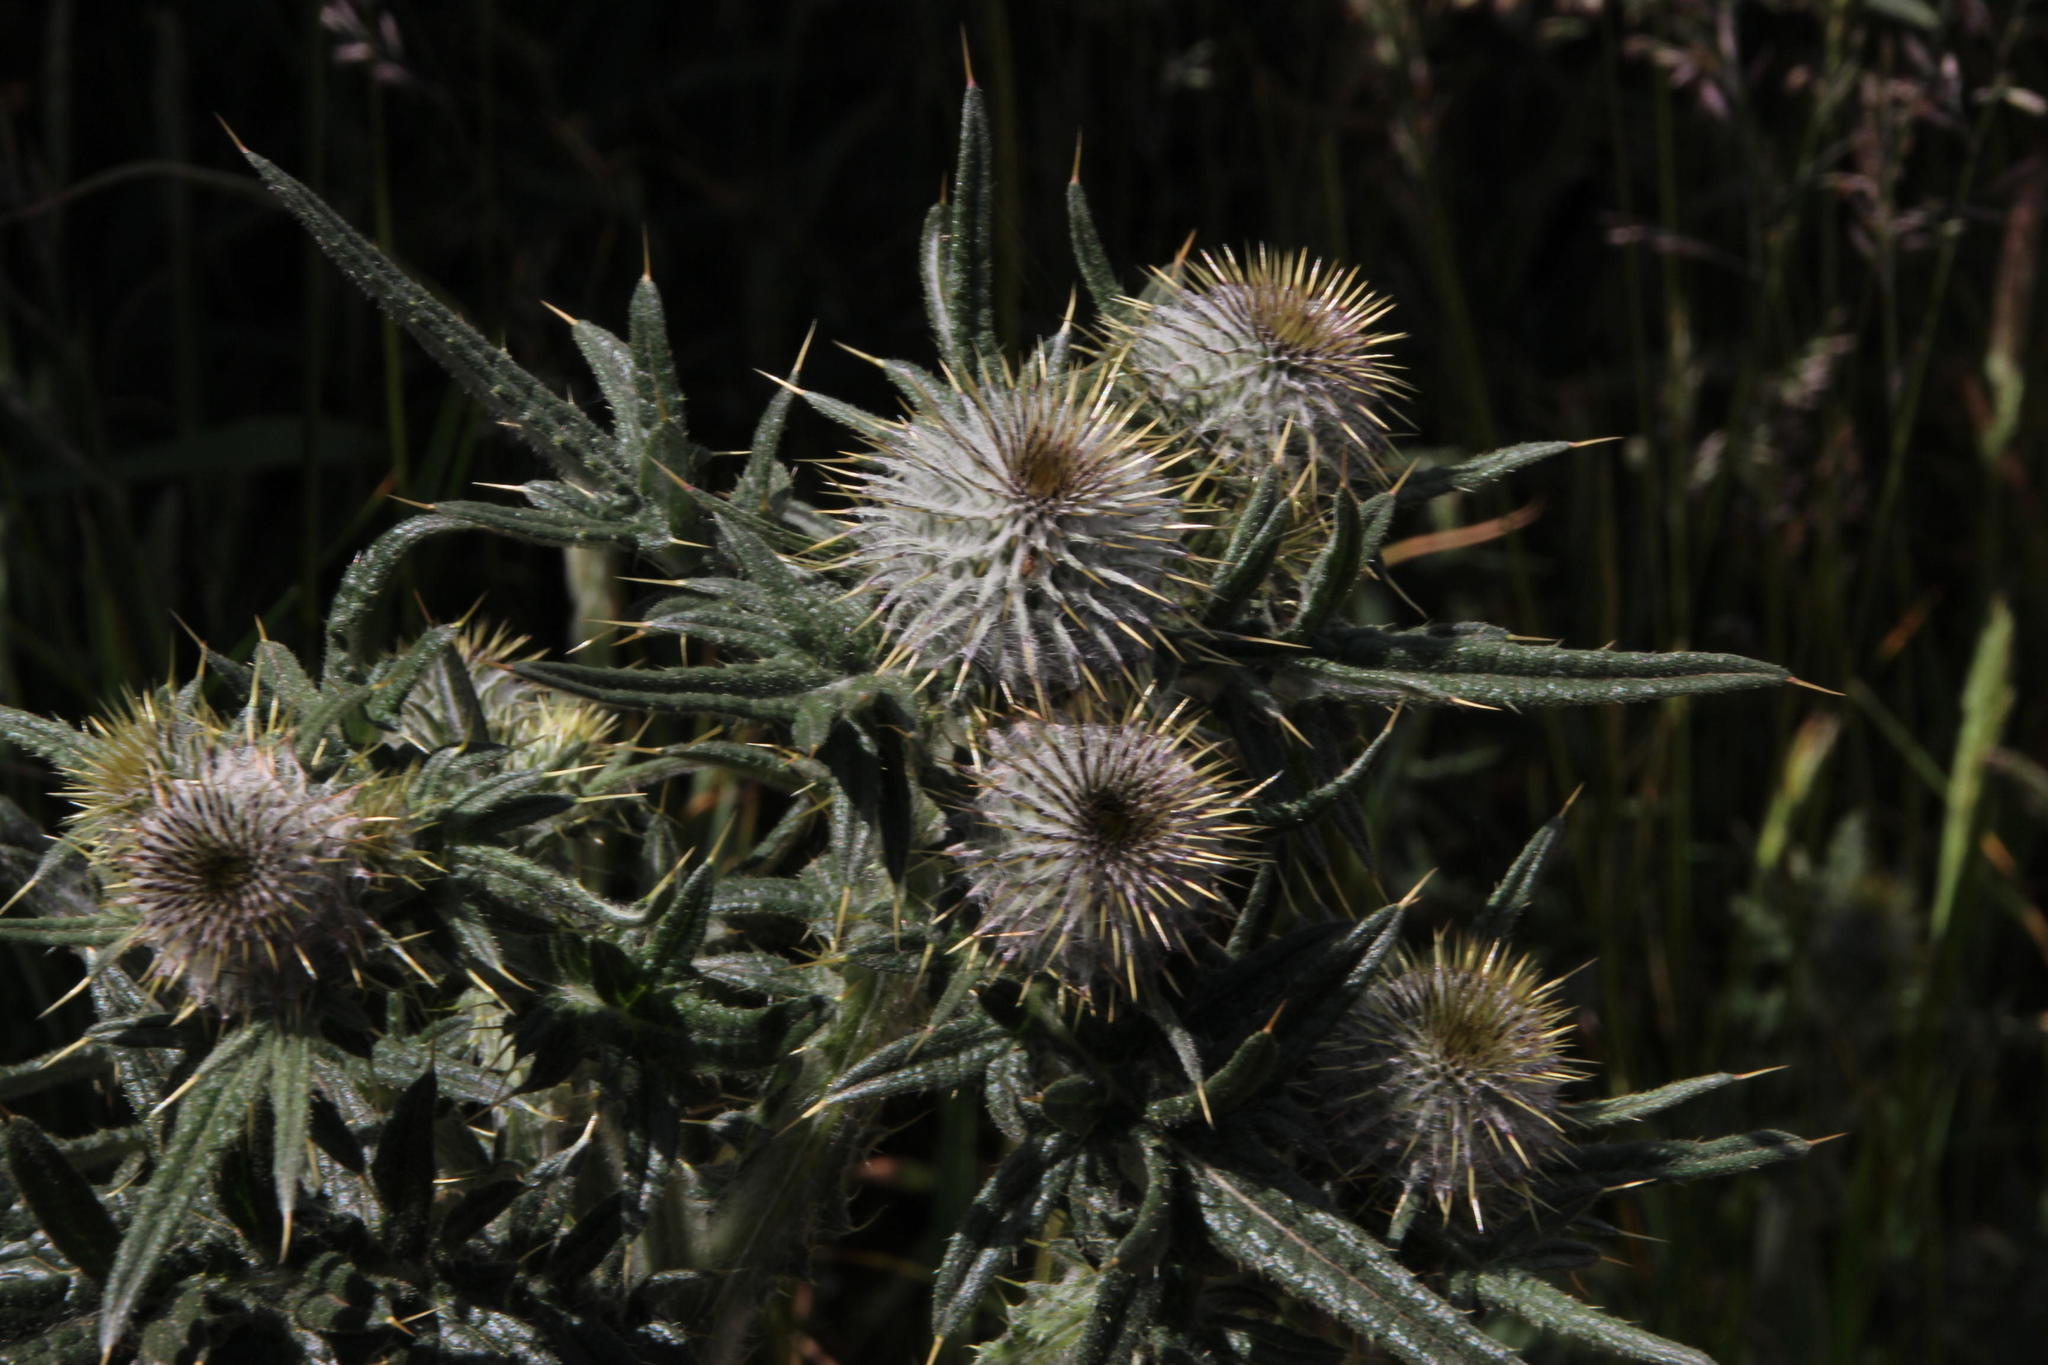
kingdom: Plantae
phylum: Tracheophyta
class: Magnoliopsida
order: Asterales
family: Asteraceae
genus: Cirsium
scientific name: Cirsium vulgare
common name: Bull thistle
